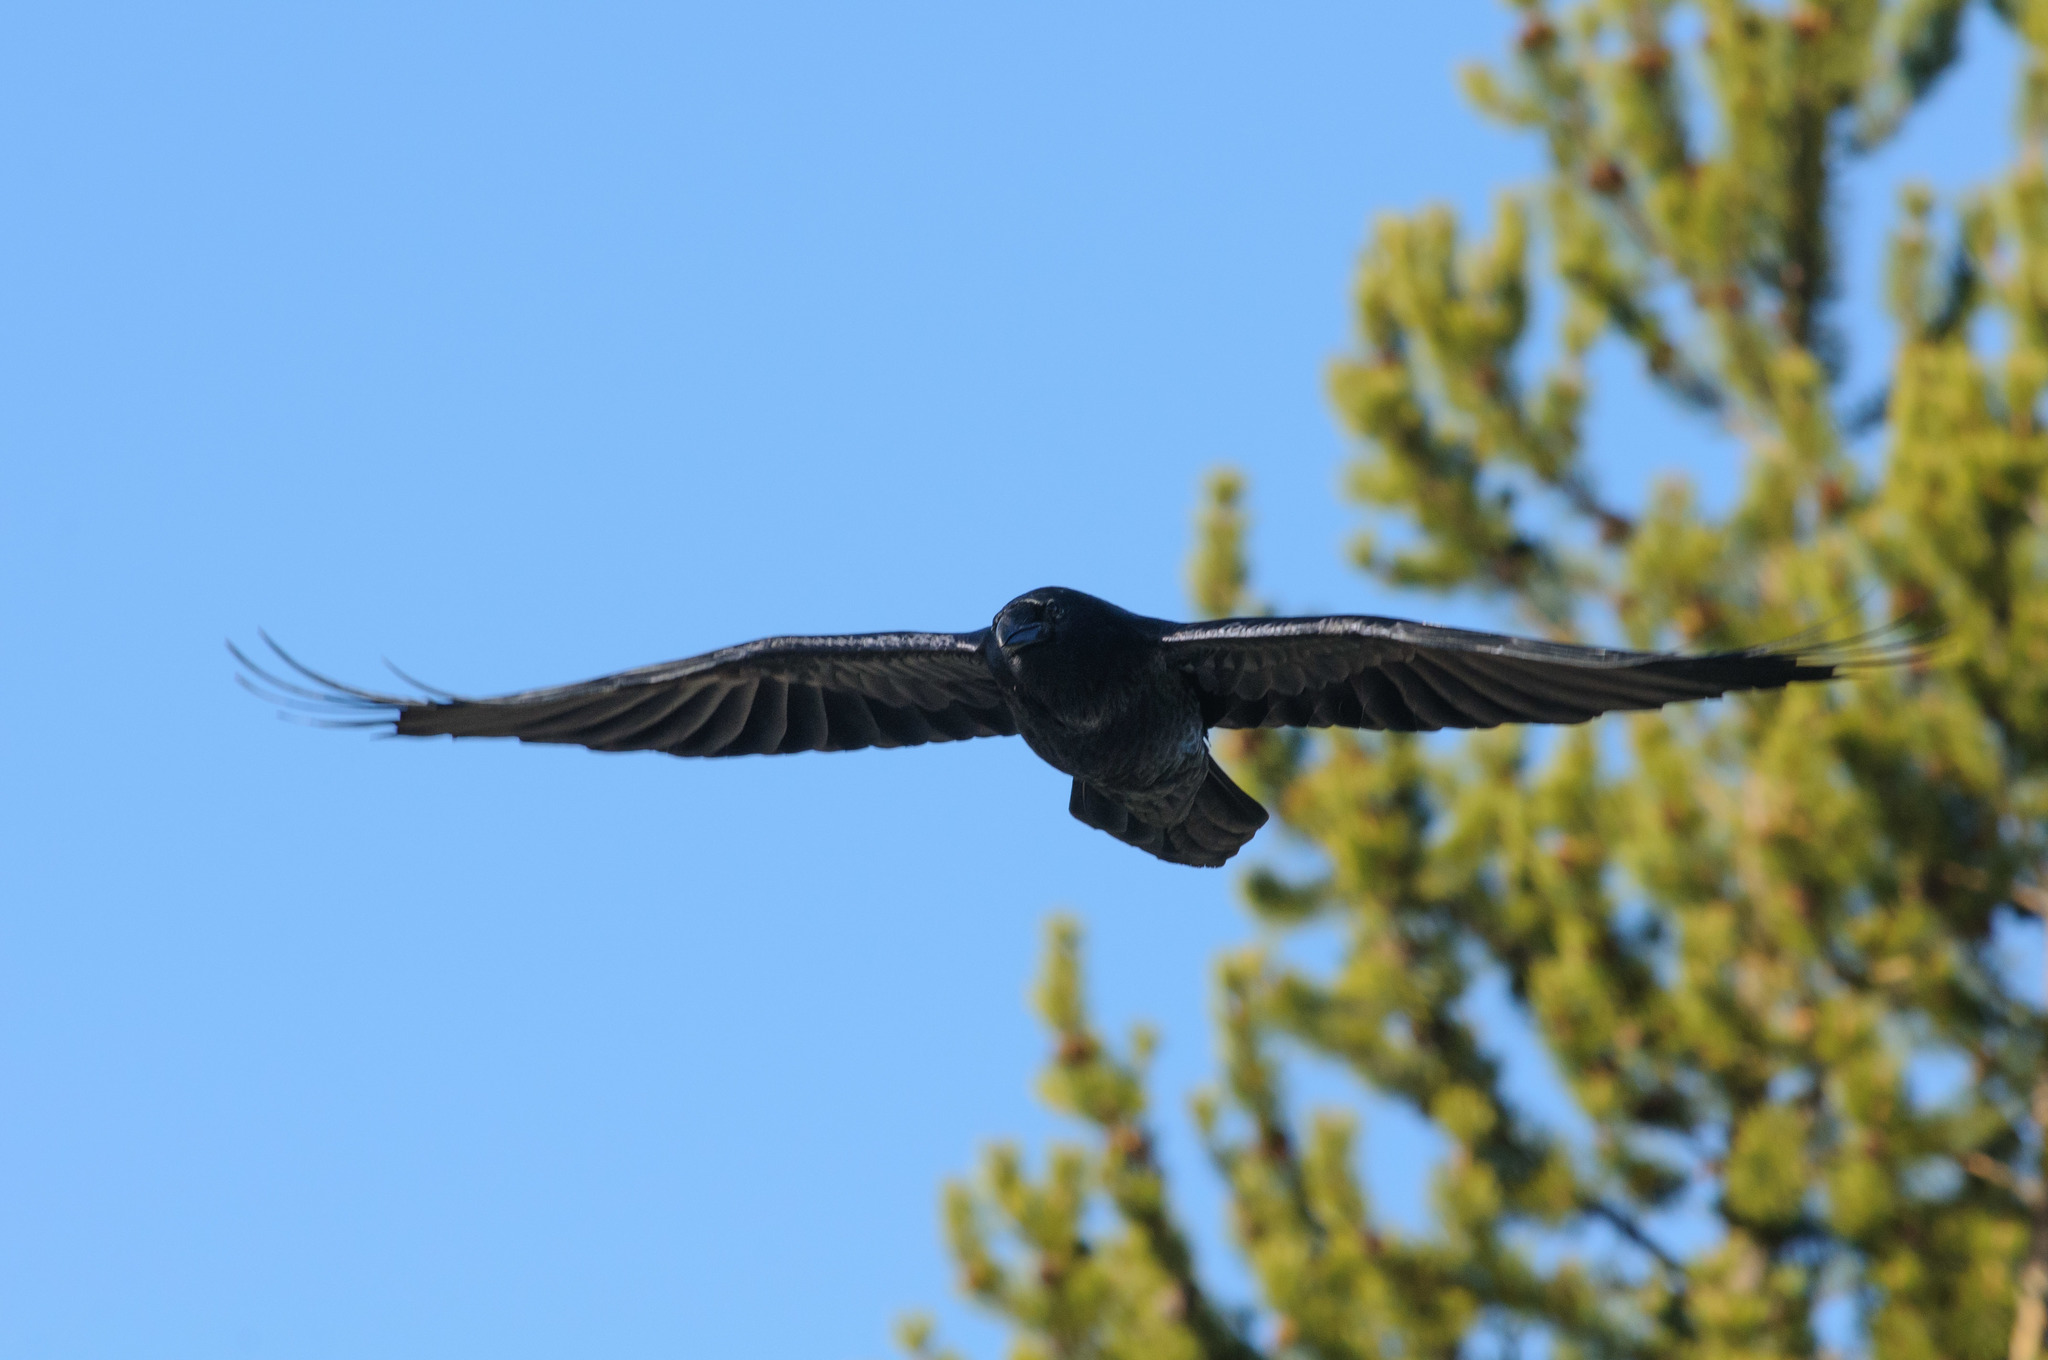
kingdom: Animalia
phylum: Chordata
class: Aves
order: Passeriformes
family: Corvidae
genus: Corvus
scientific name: Corvus corax
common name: Common raven
